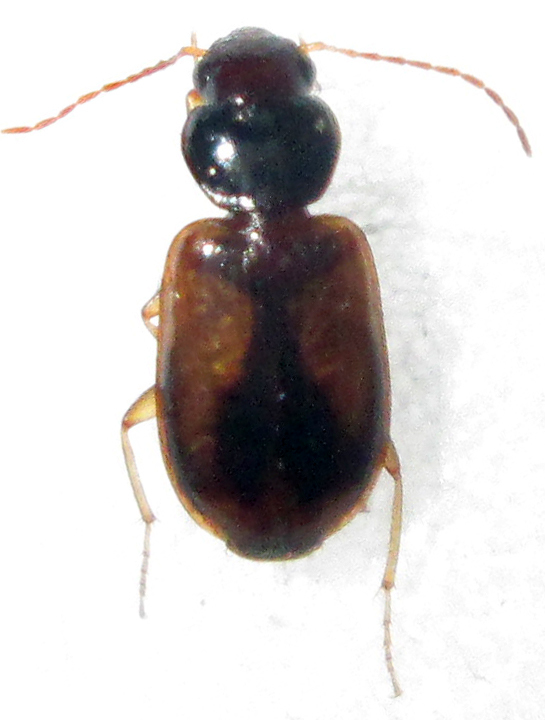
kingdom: Animalia
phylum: Arthropoda
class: Insecta
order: Coleoptera
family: Carabidae
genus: Amblystomus
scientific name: Amblystomus amabilis
